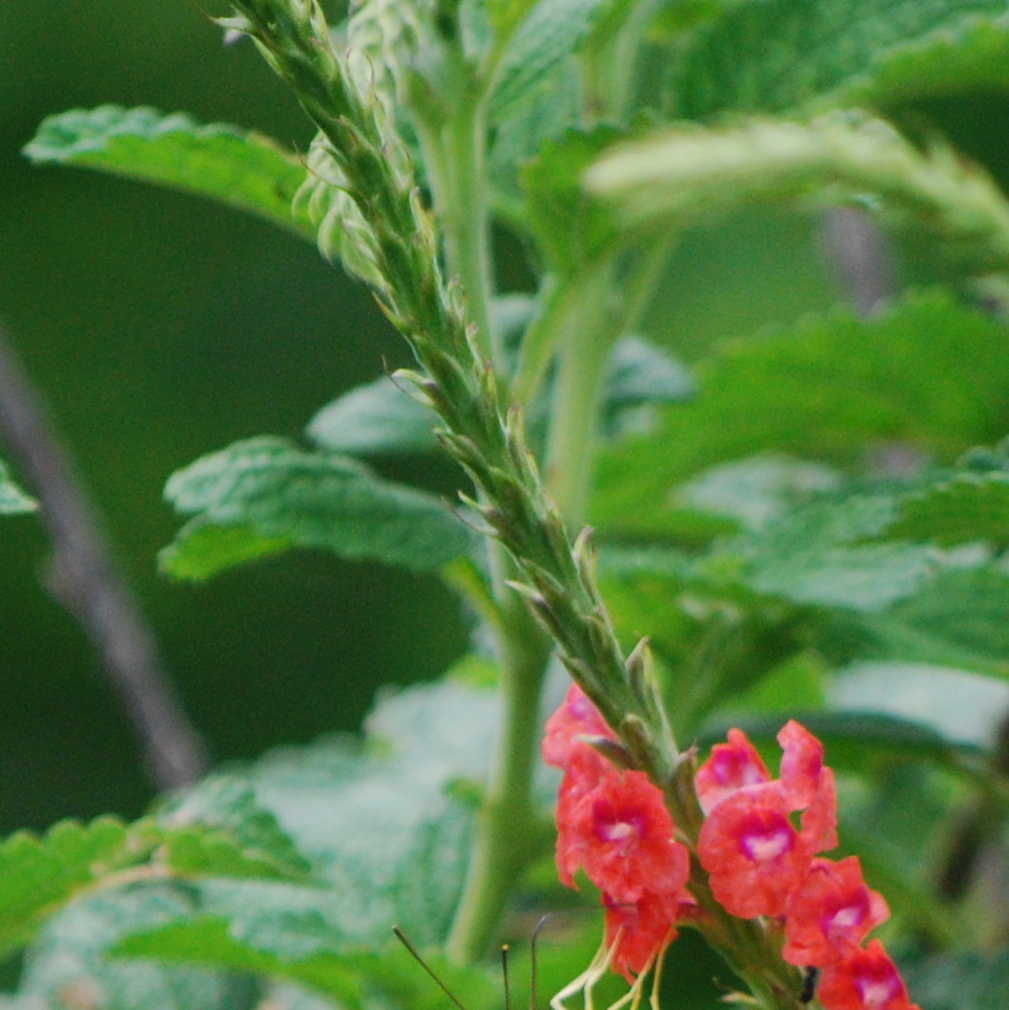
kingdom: Plantae
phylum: Tracheophyta
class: Magnoliopsida
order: Lamiales
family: Verbenaceae
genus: Stachytarpheta
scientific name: Stachytarpheta mutabilis
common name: Changeable velvetberry
